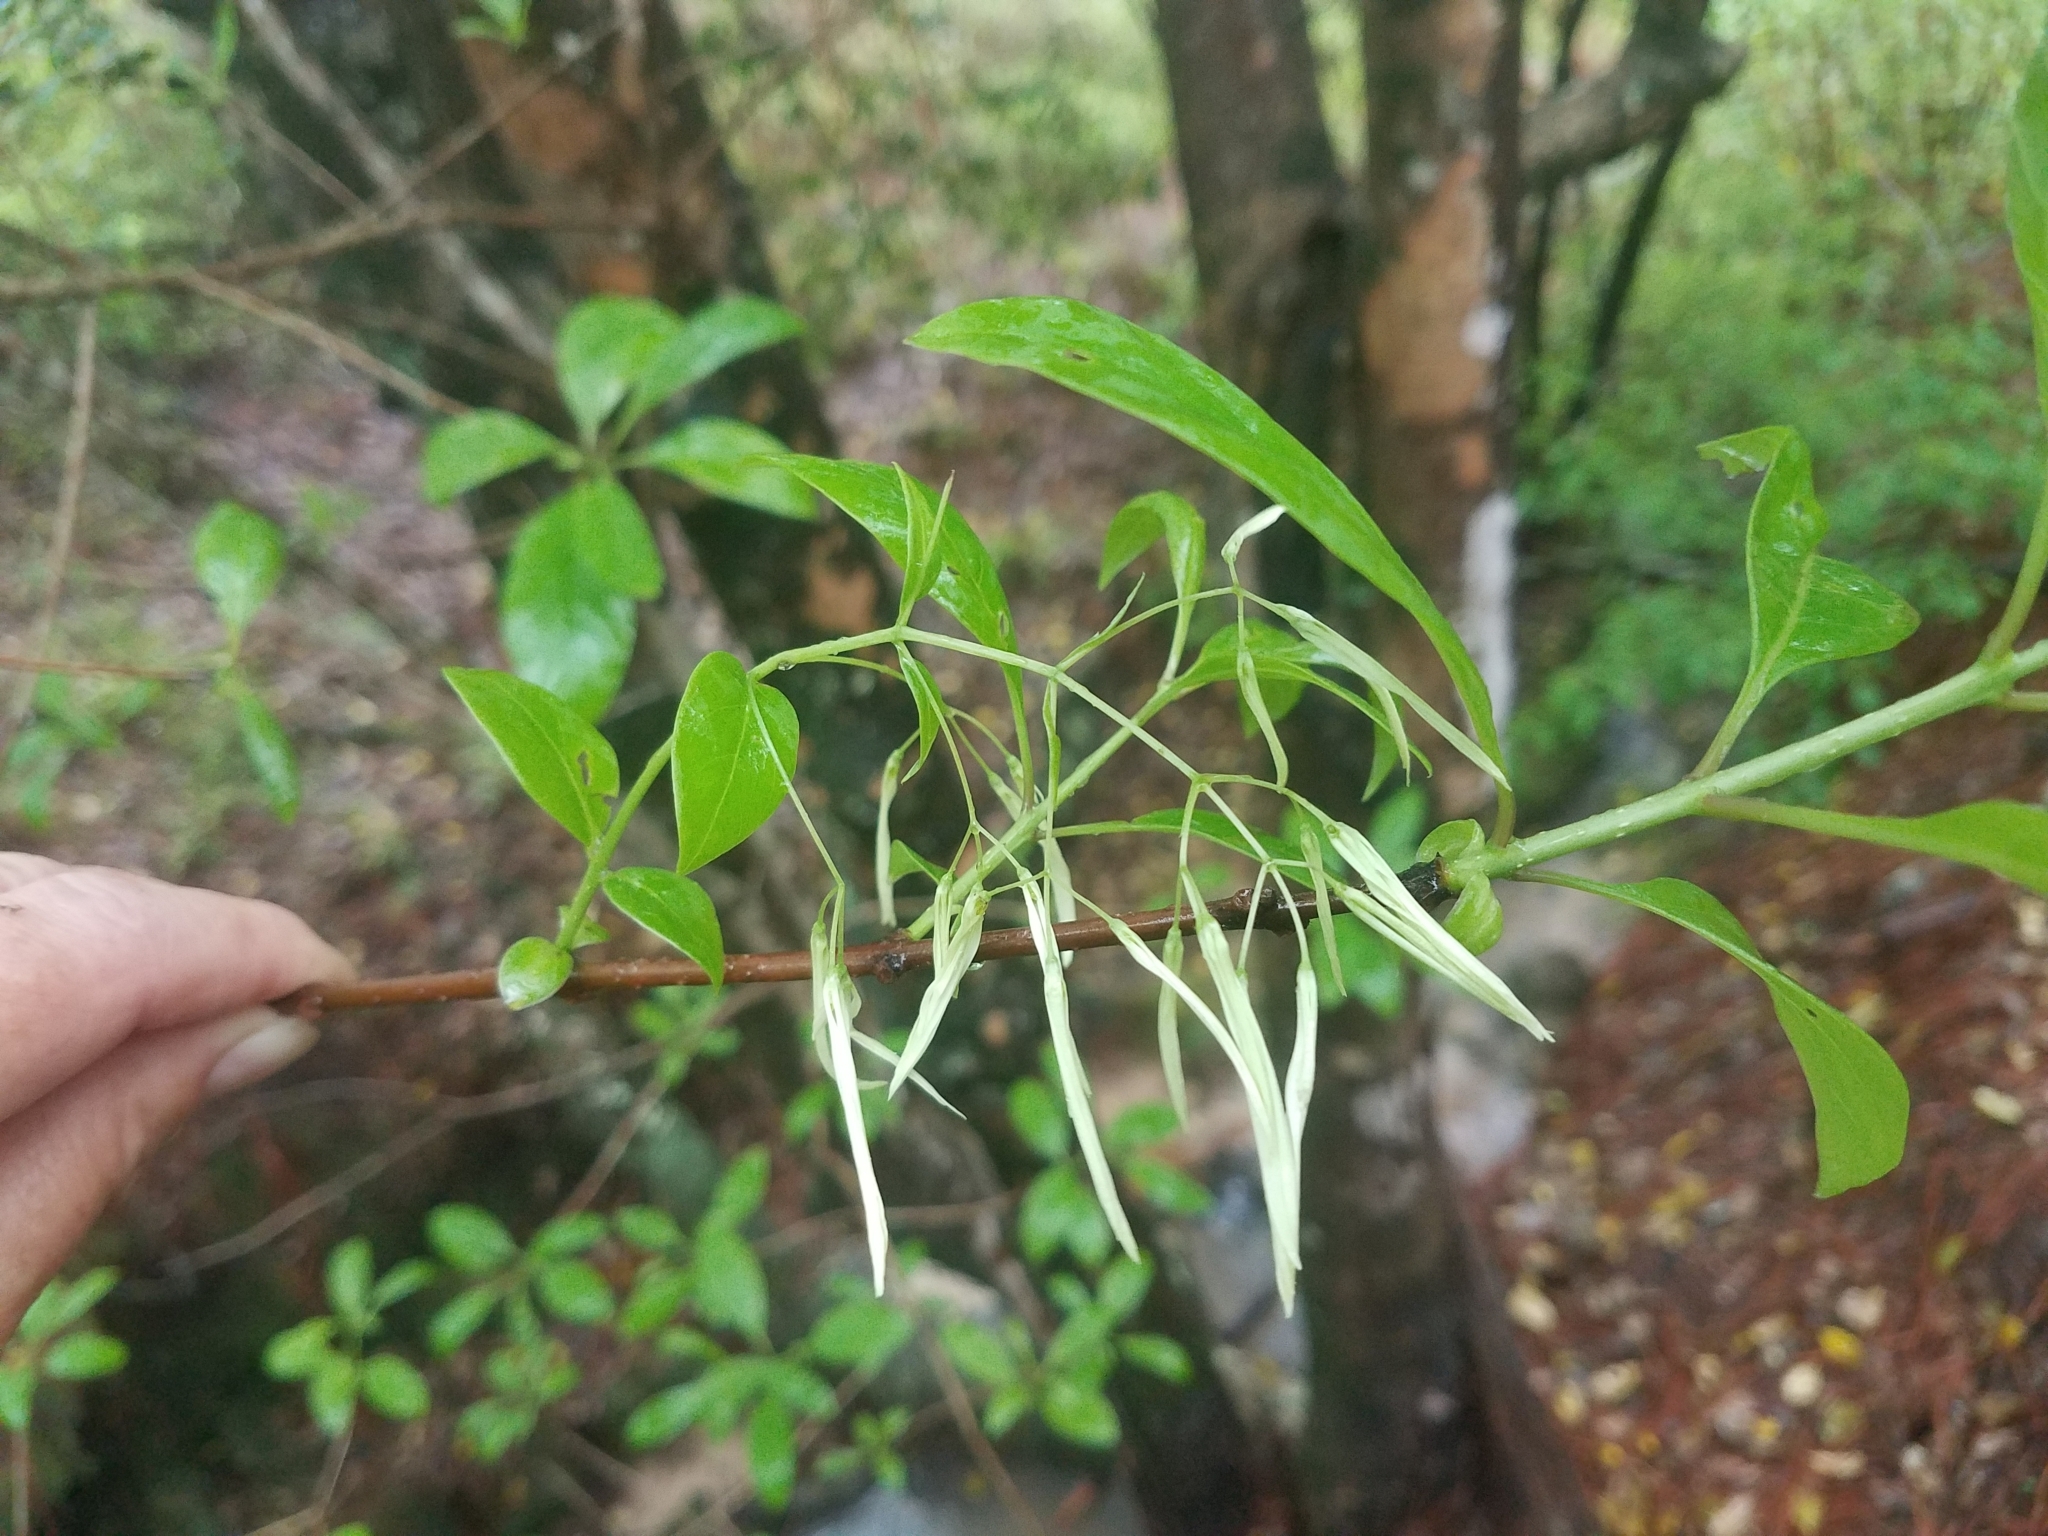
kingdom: Plantae
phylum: Tracheophyta
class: Magnoliopsida
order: Lamiales
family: Oleaceae
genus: Chionanthus
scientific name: Chionanthus virginicus
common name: American fringetree
